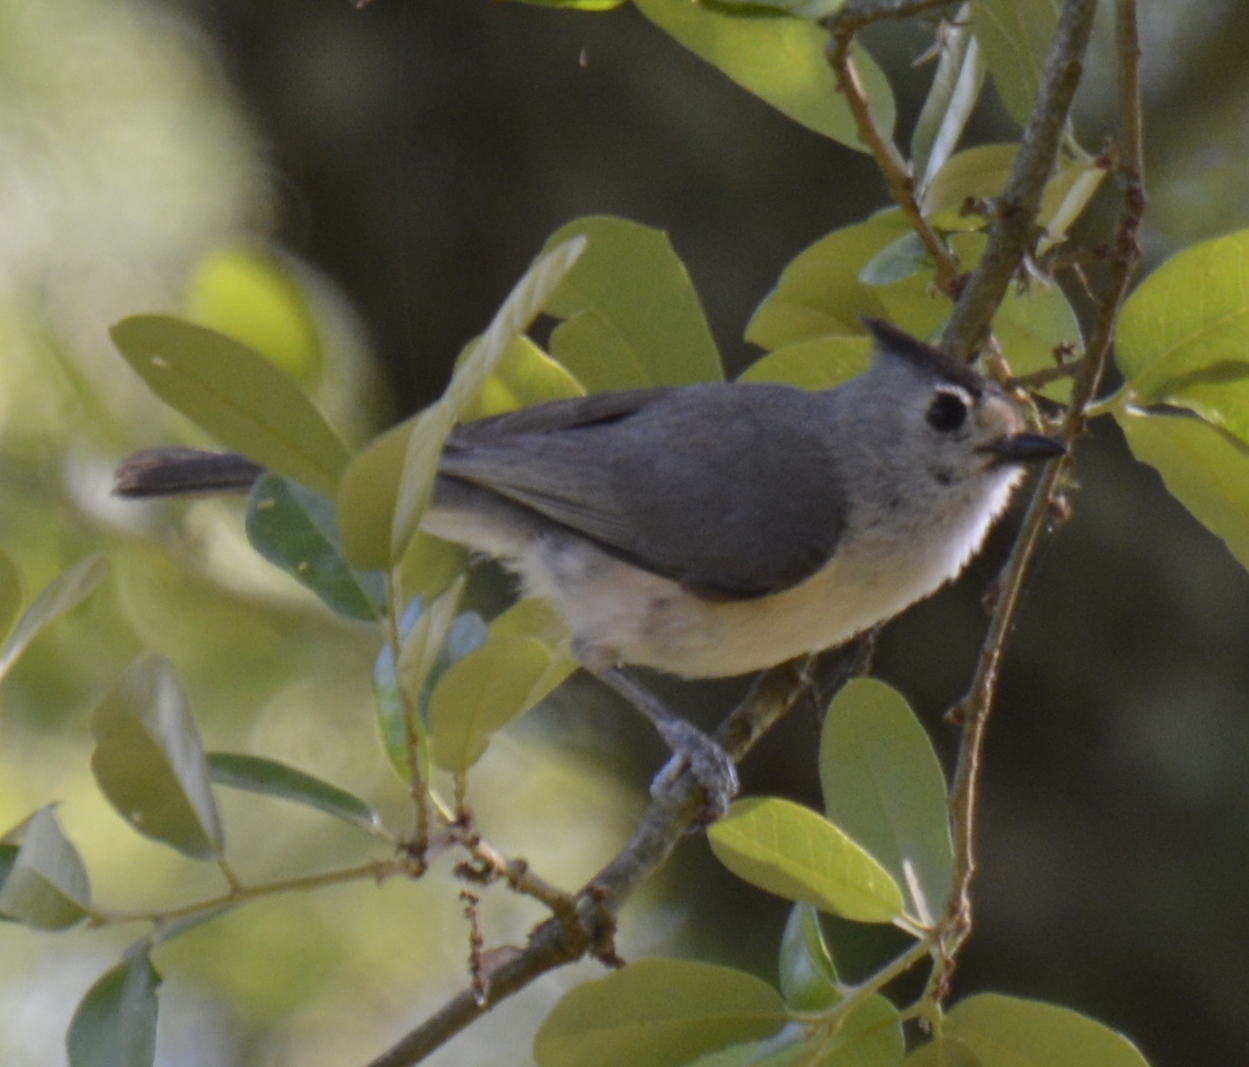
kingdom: Animalia
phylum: Chordata
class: Aves
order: Passeriformes
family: Paridae
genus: Baeolophus
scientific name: Baeolophus atricristatus
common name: Black-crested titmouse
